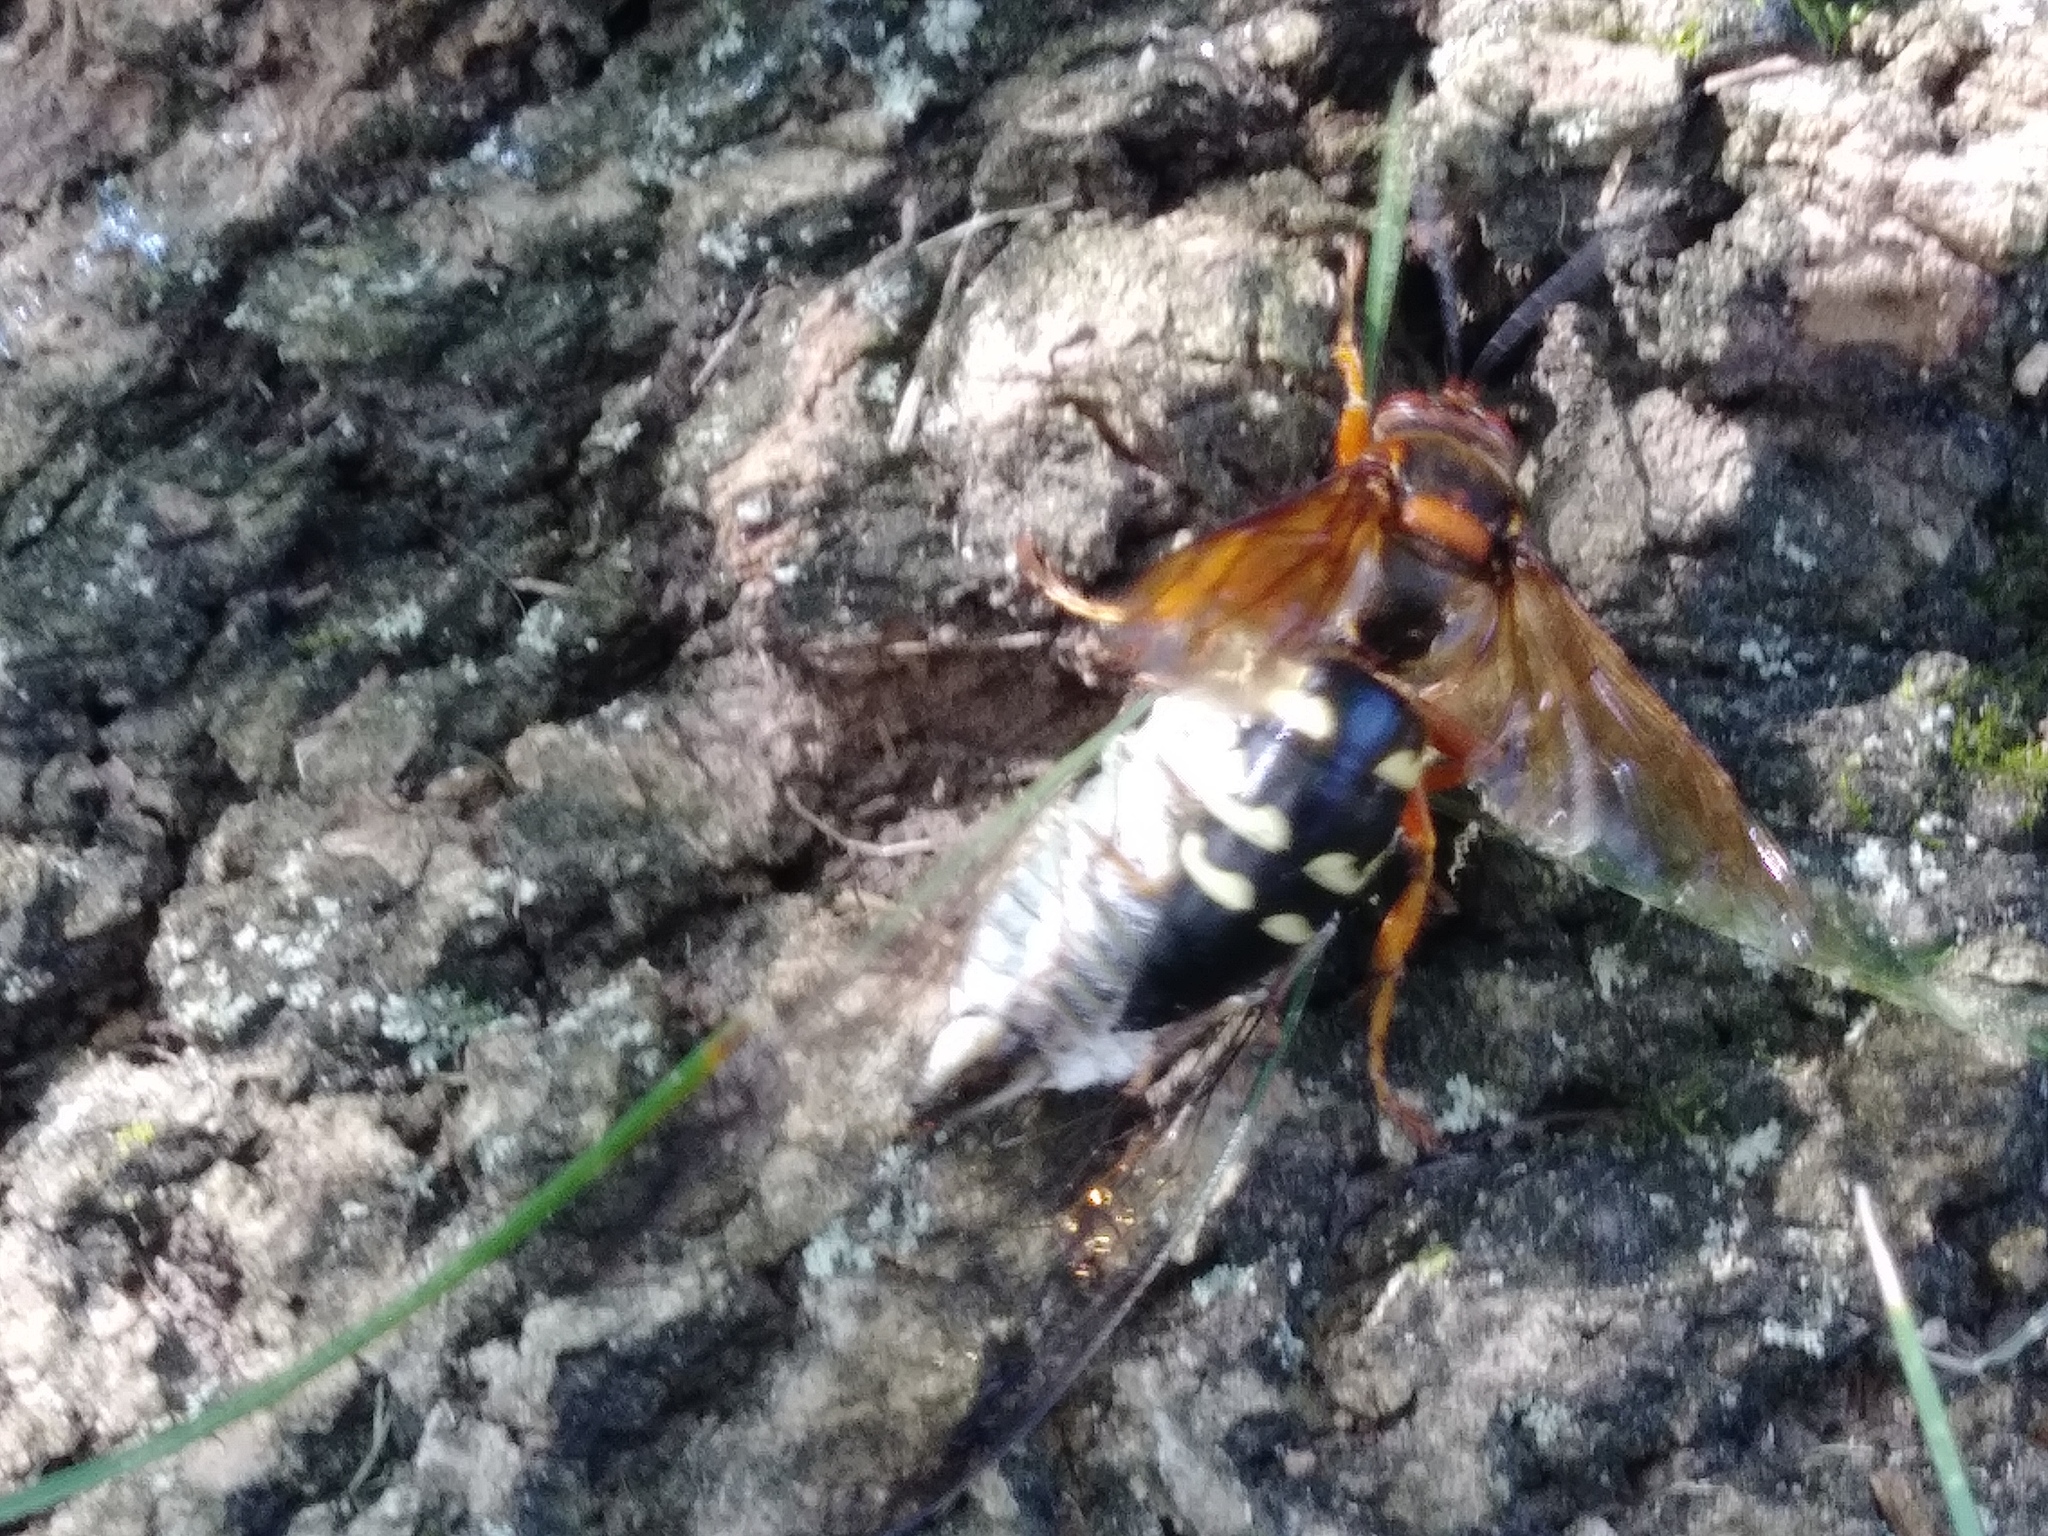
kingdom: Animalia
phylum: Arthropoda
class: Insecta
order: Hymenoptera
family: Crabronidae
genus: Sphecius
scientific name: Sphecius speciosus
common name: Cicada killer
